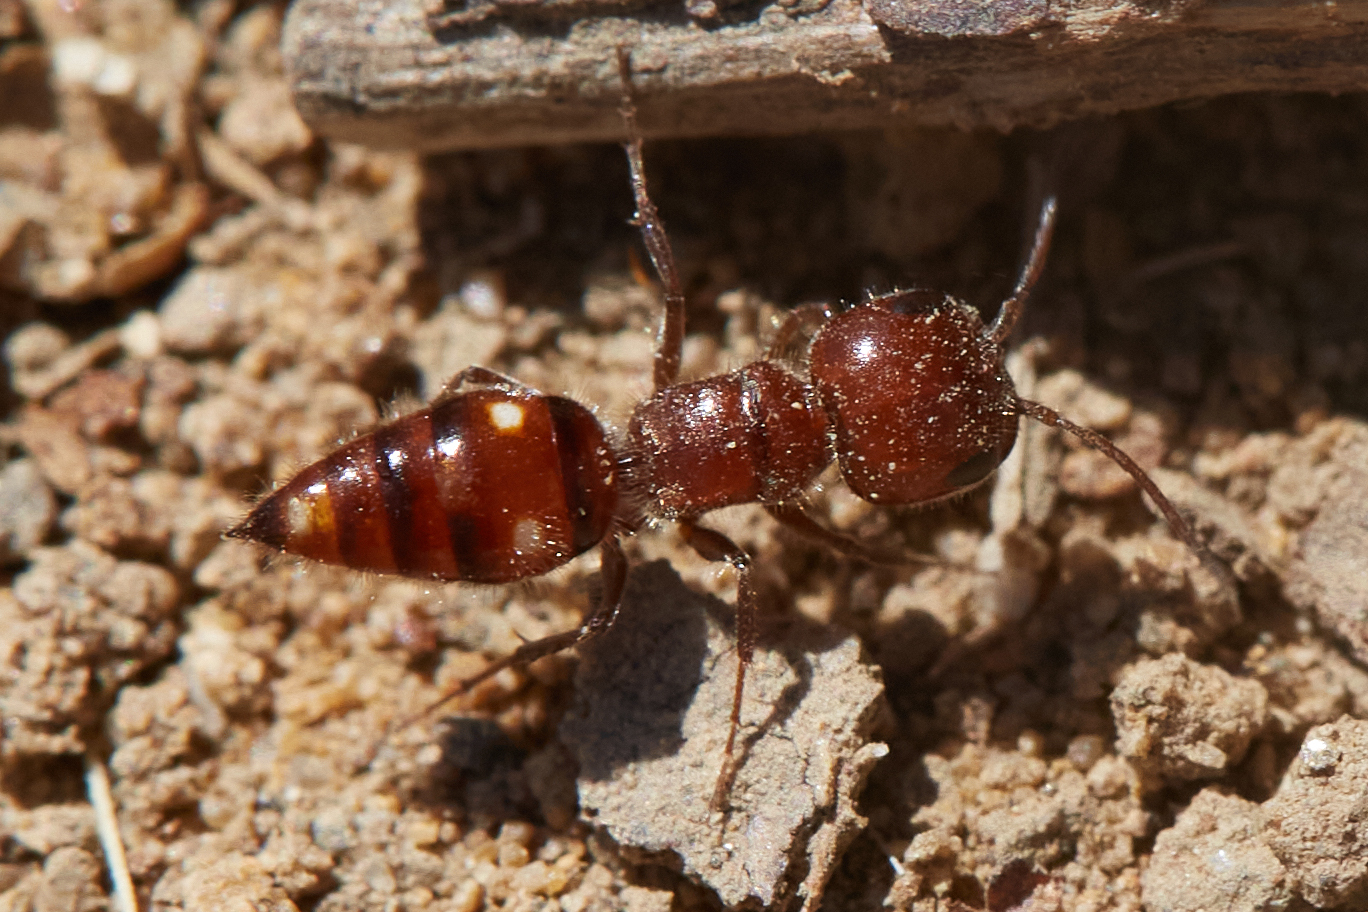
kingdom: Animalia
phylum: Arthropoda
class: Insecta
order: Hymenoptera
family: Myrmosidae
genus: Myrmosula
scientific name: Myrmosula
